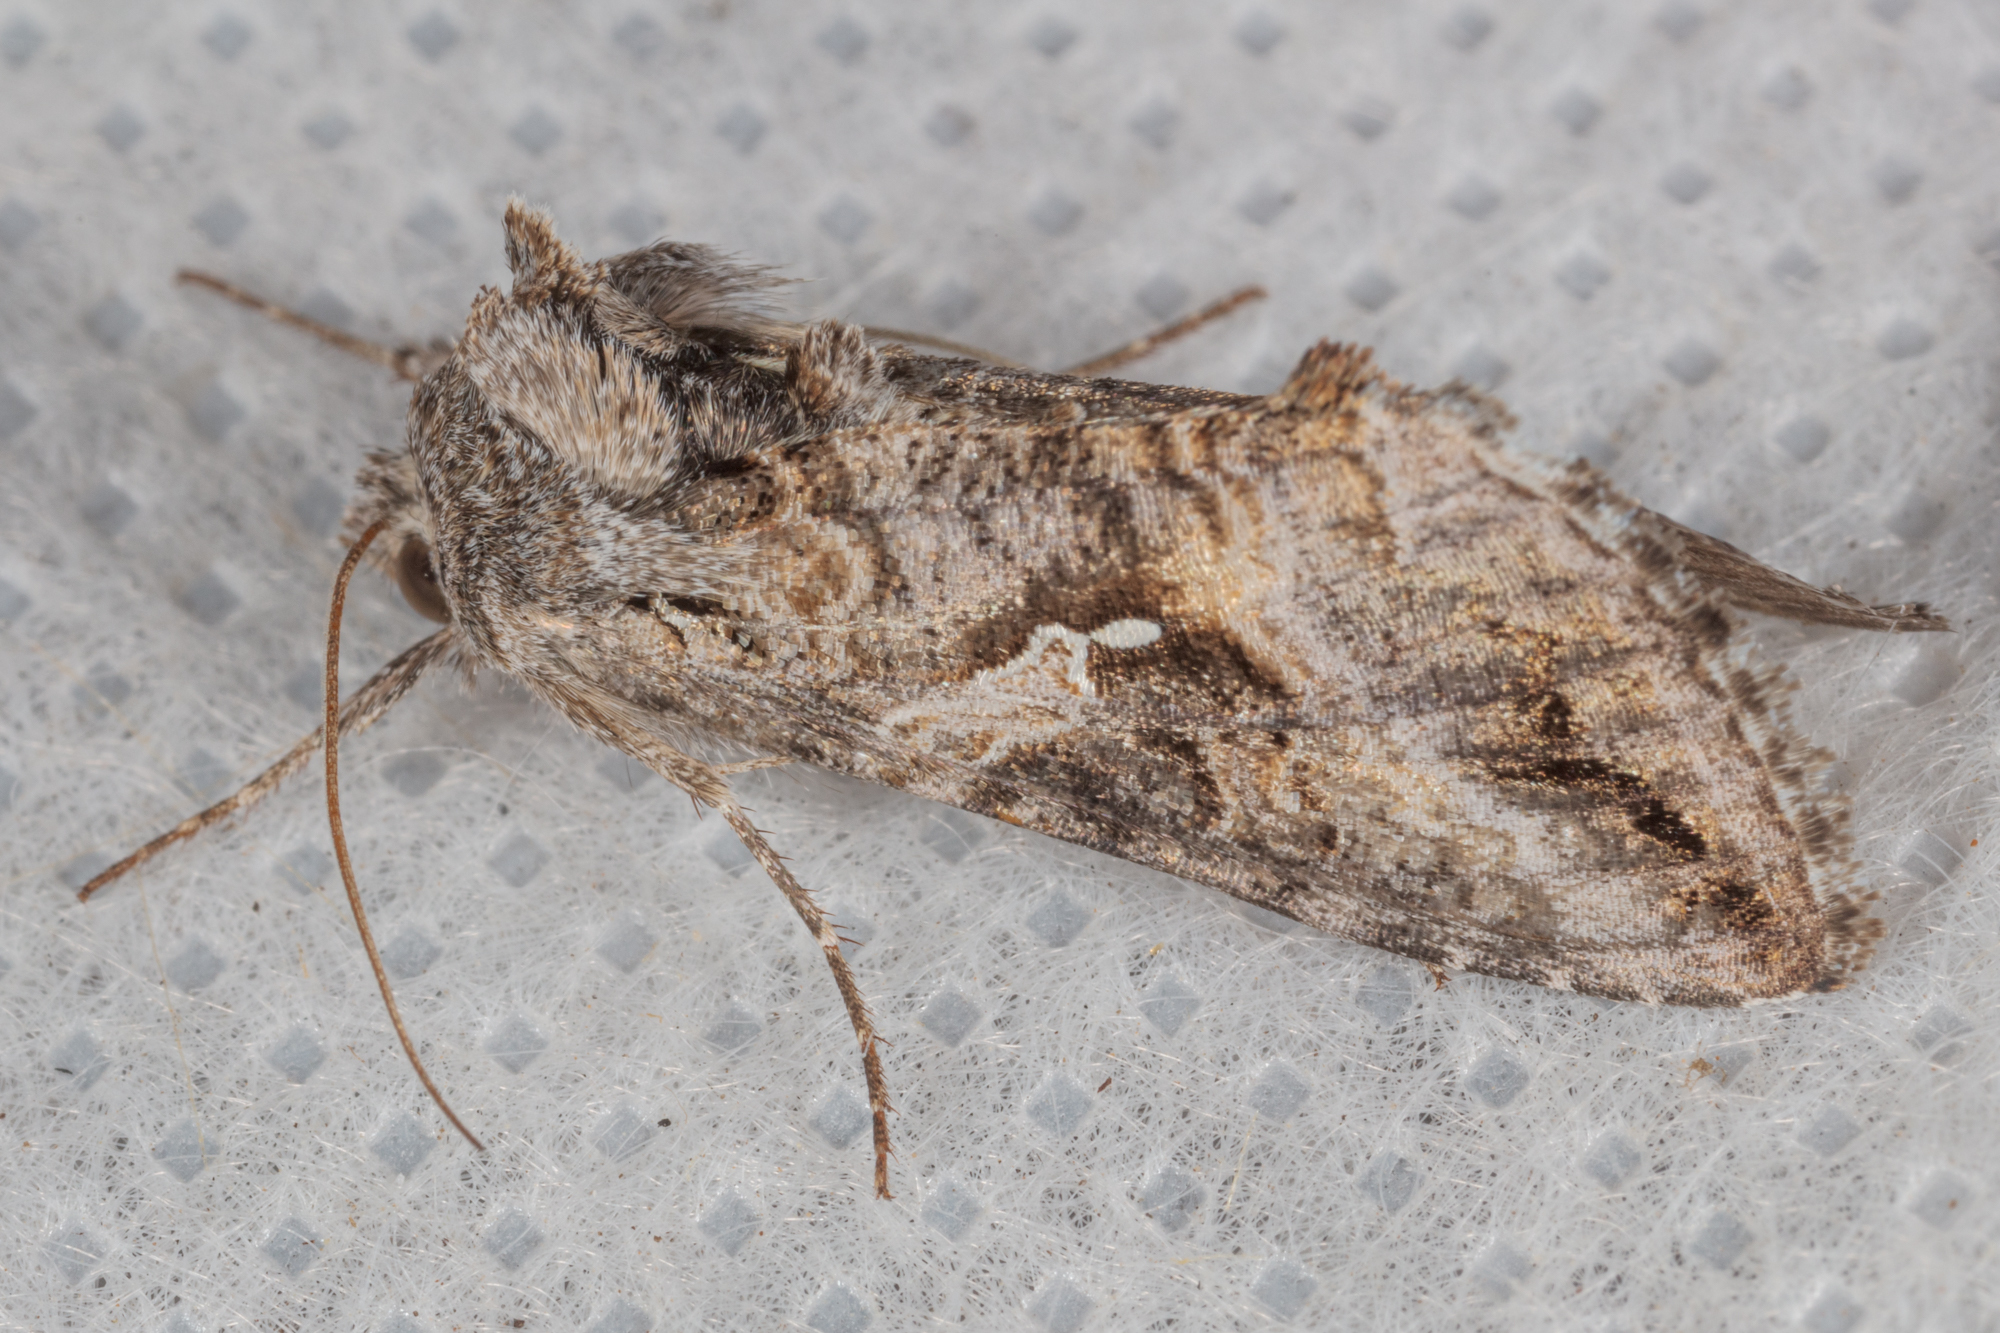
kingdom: Animalia
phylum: Arthropoda
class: Insecta
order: Lepidoptera
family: Noctuidae
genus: Rachiplusia
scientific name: Rachiplusia ou
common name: Gray looper moth
